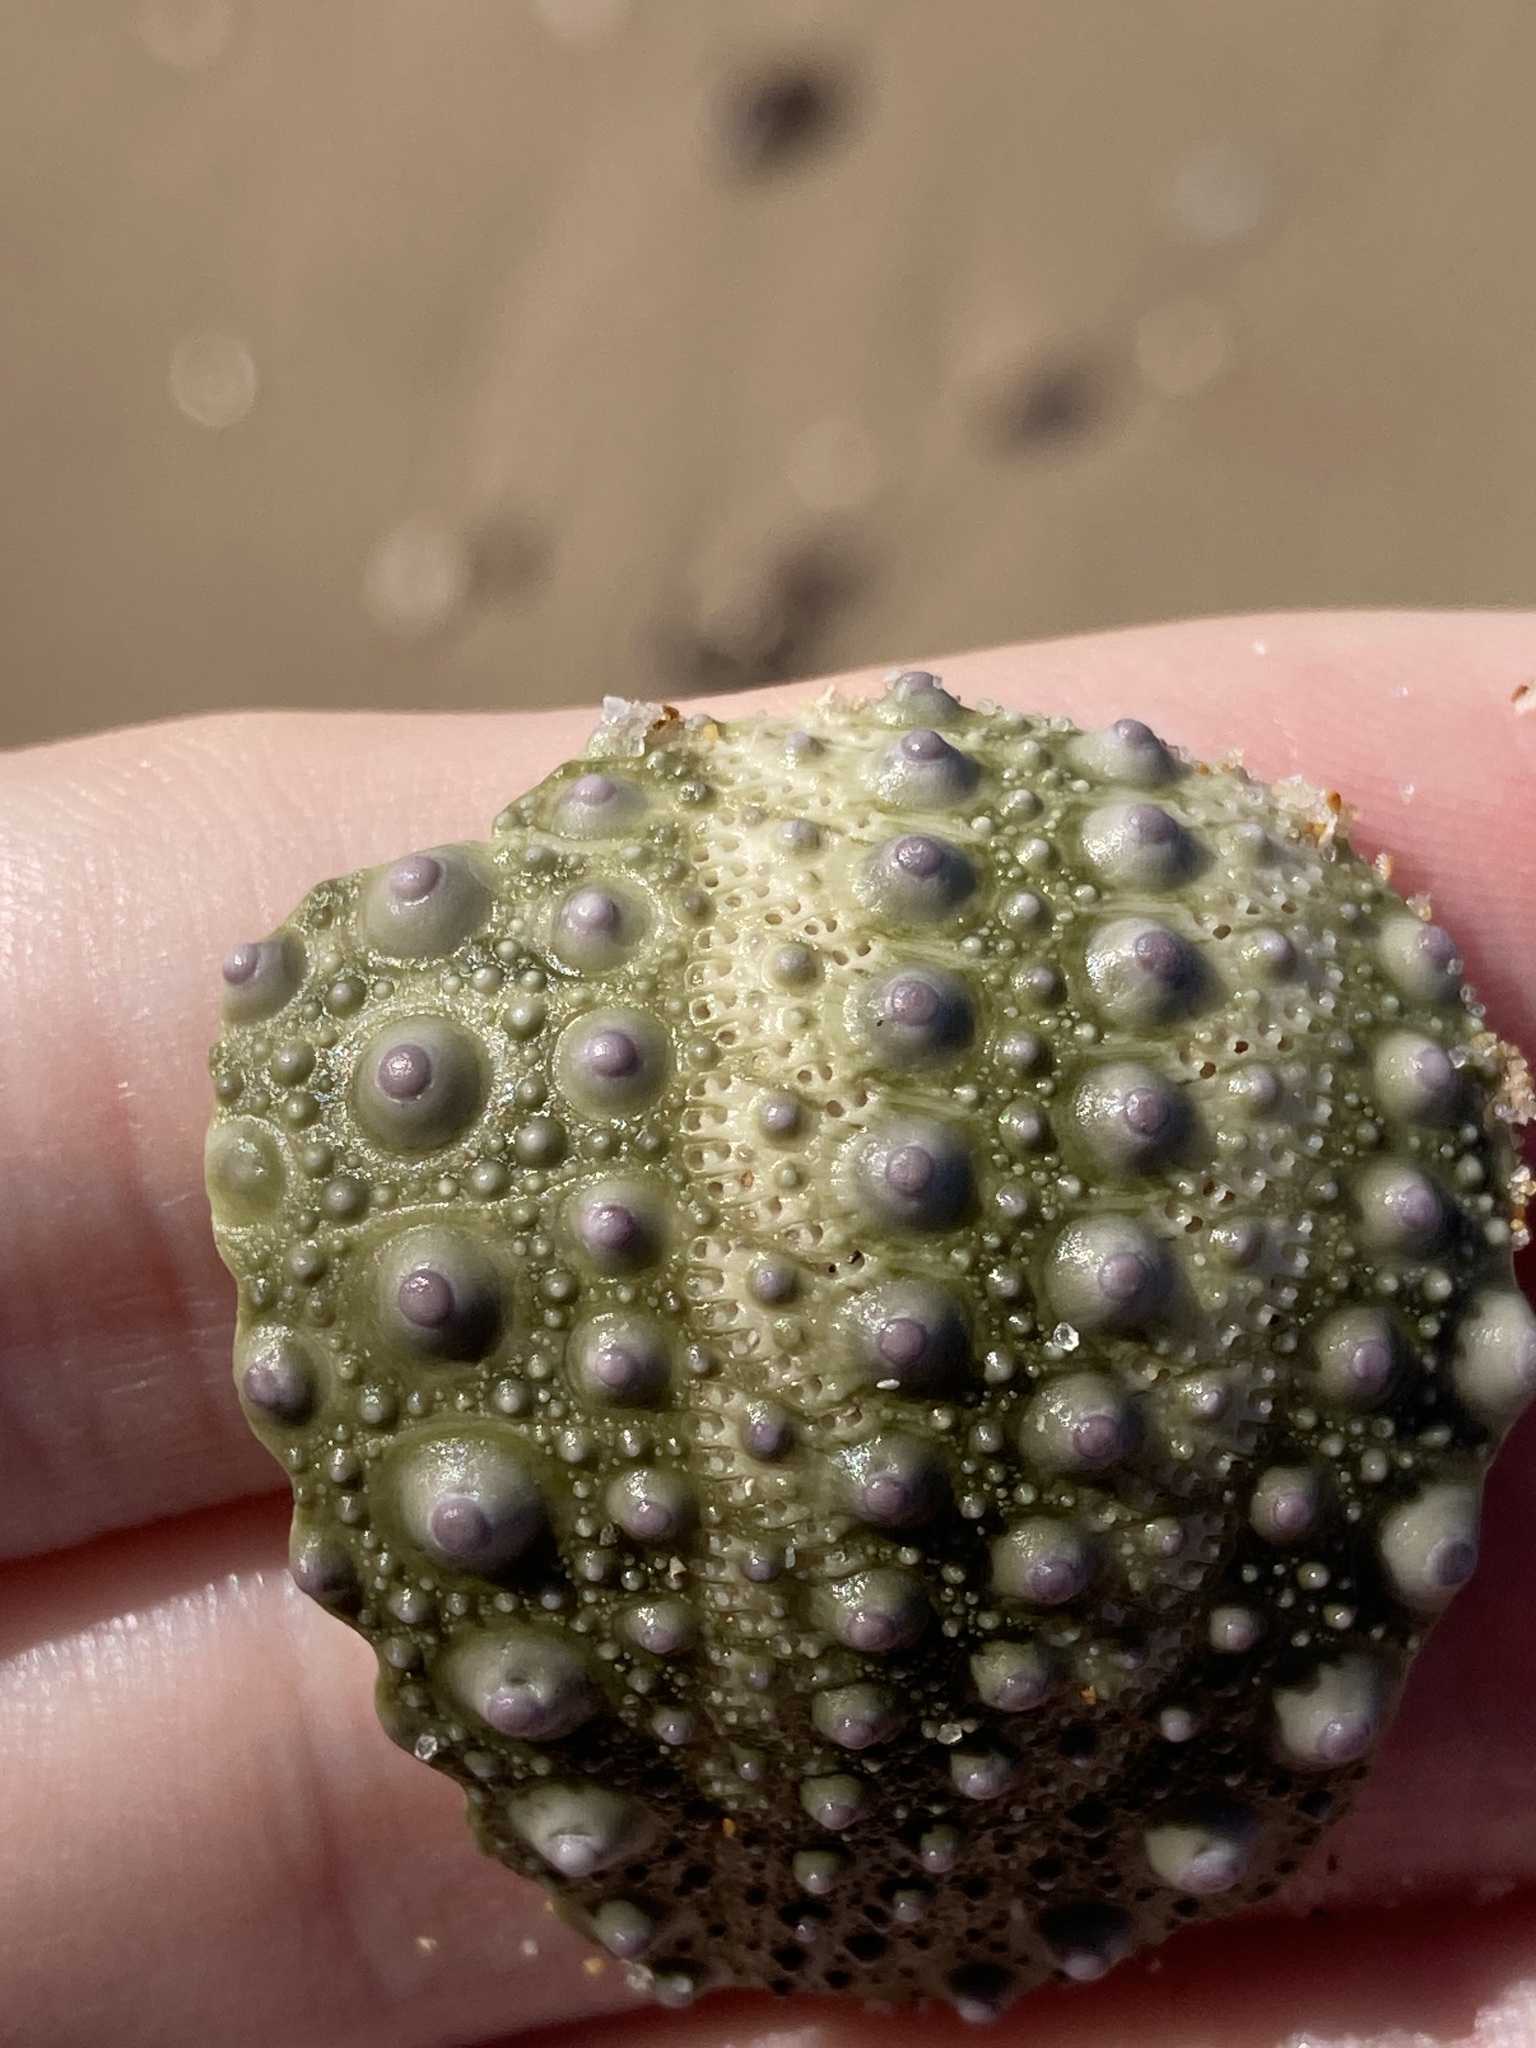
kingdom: Animalia
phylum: Echinodermata
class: Echinoidea
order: Camarodonta
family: Echinometridae
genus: Heliocidaris
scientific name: Heliocidaris erythrogramma
